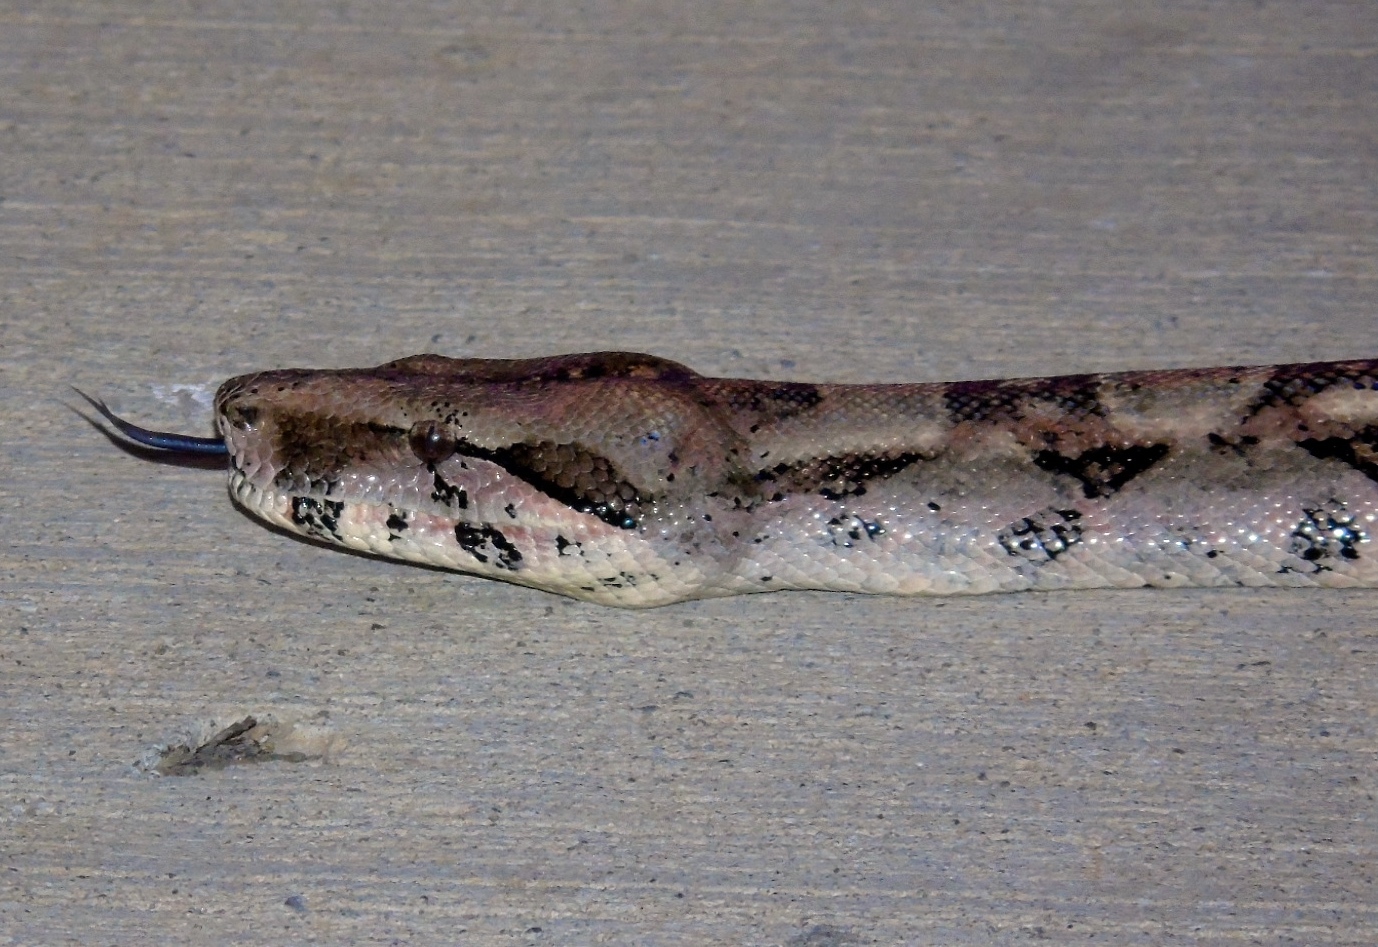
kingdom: Animalia
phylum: Chordata
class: Squamata
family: Boidae
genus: Boa
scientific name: Boa
